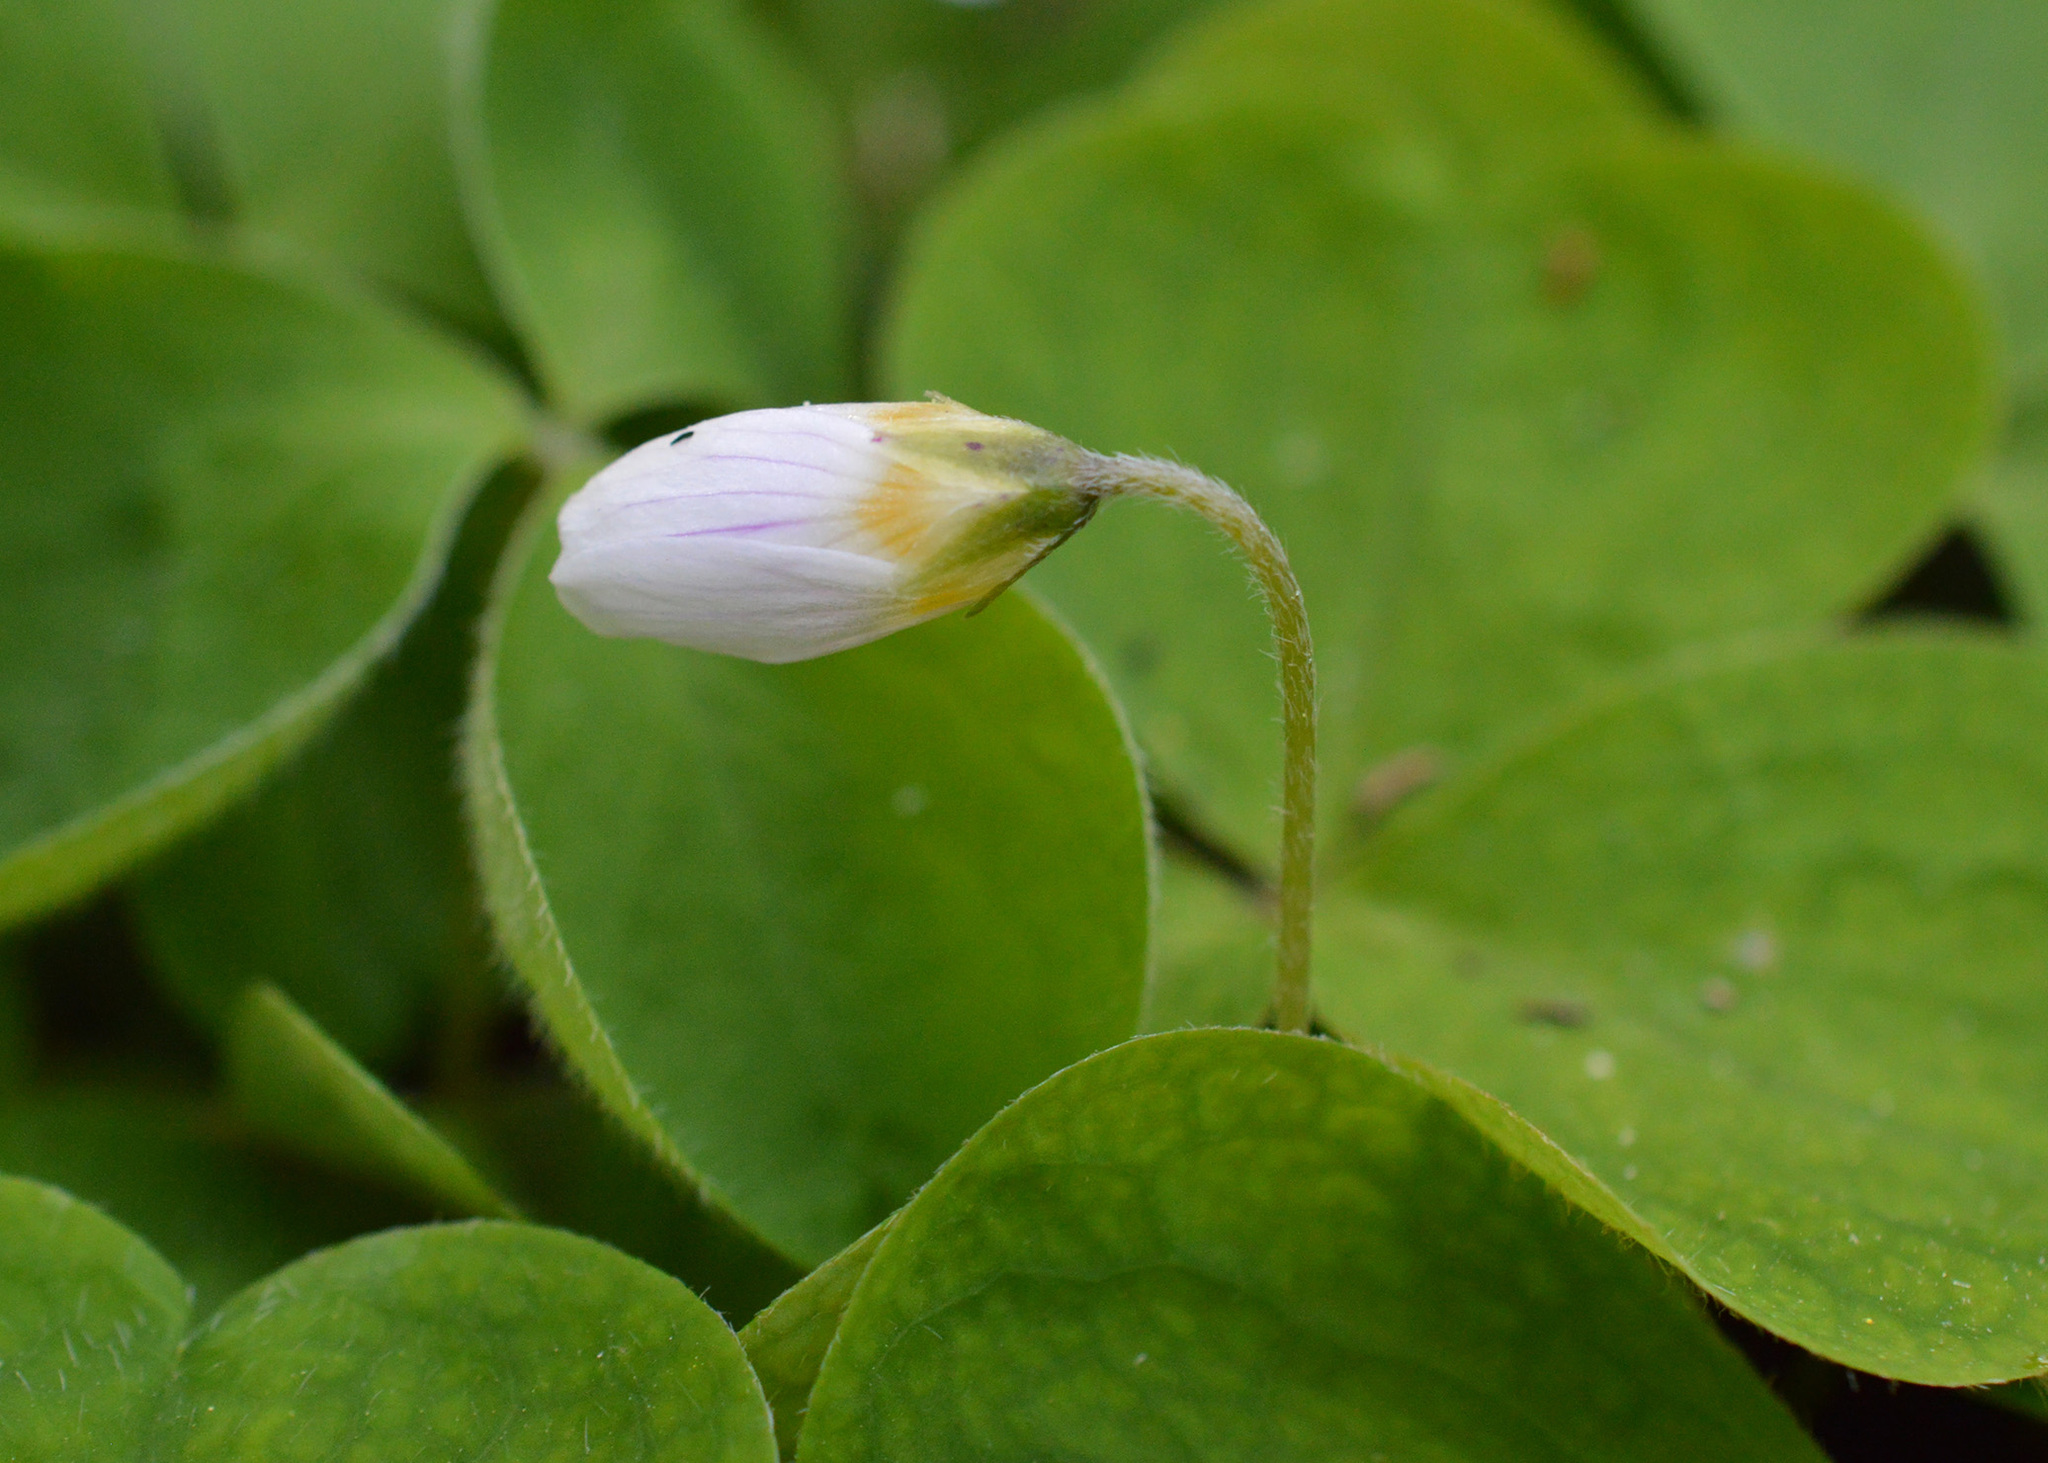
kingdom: Plantae
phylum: Tracheophyta
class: Magnoliopsida
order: Oxalidales
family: Oxalidaceae
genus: Oxalis
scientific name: Oxalis acetosella
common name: Wood-sorrel
